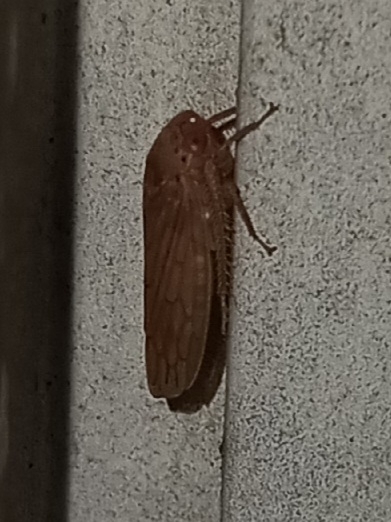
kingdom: Animalia
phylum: Arthropoda
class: Insecta
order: Hemiptera
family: Cicadellidae
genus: Polana
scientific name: Polana quadrinotata
